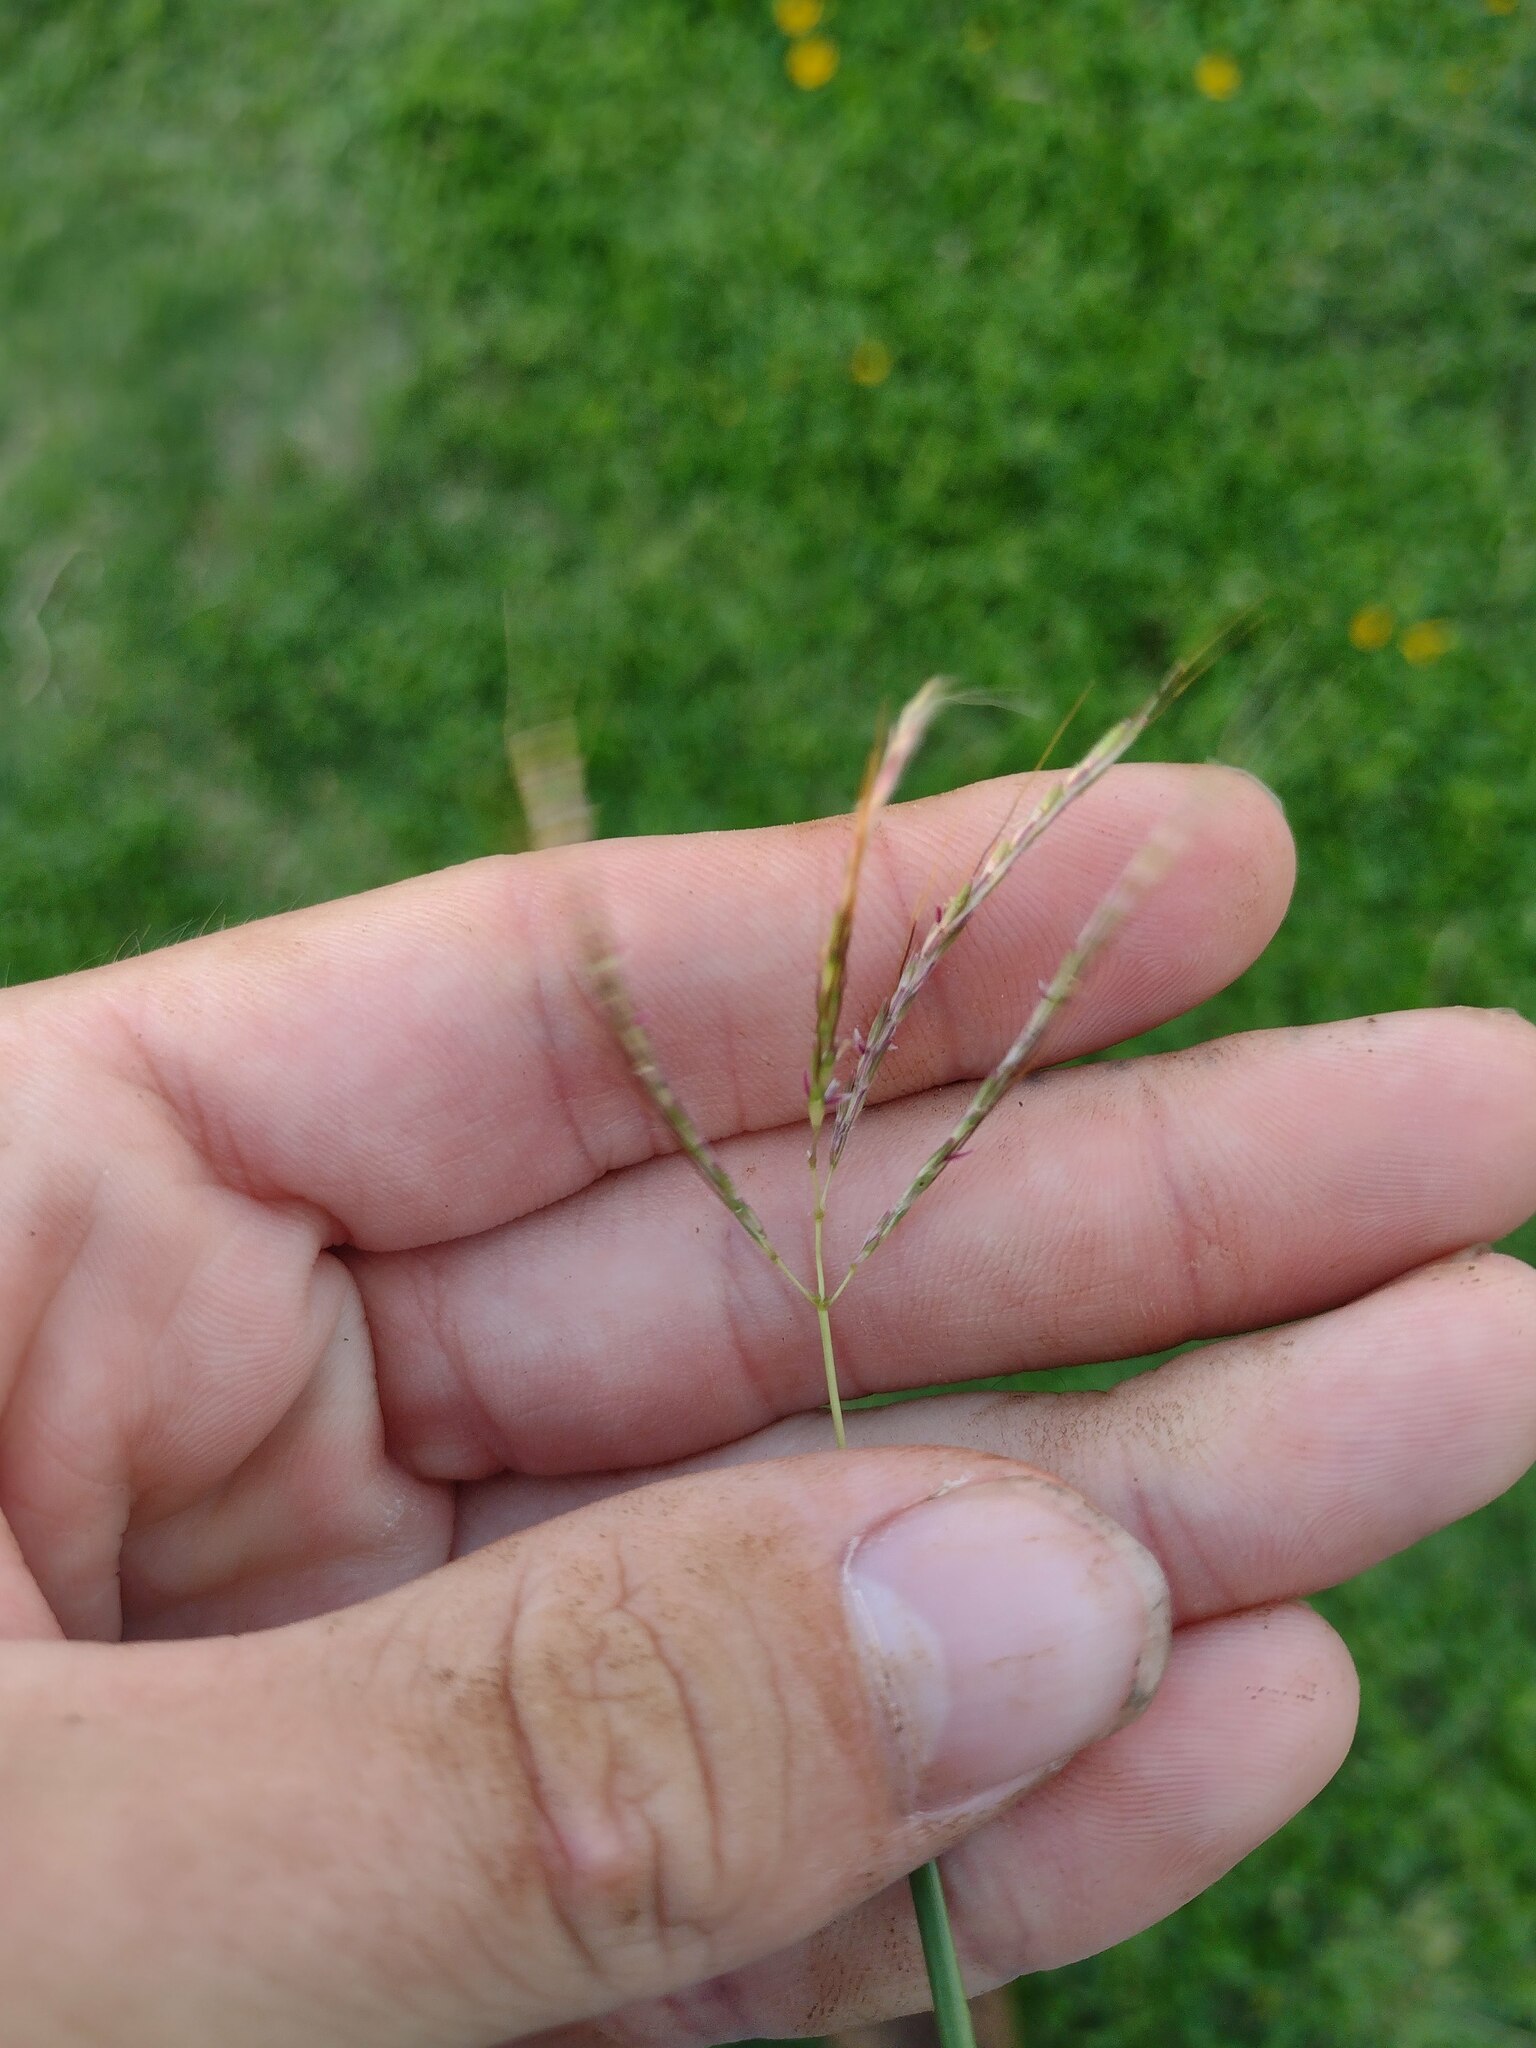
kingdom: Plantae
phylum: Tracheophyta
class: Liliopsida
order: Poales
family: Poaceae
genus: Bothriochloa
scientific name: Bothriochloa pertusa
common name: Pitted beardgrass
